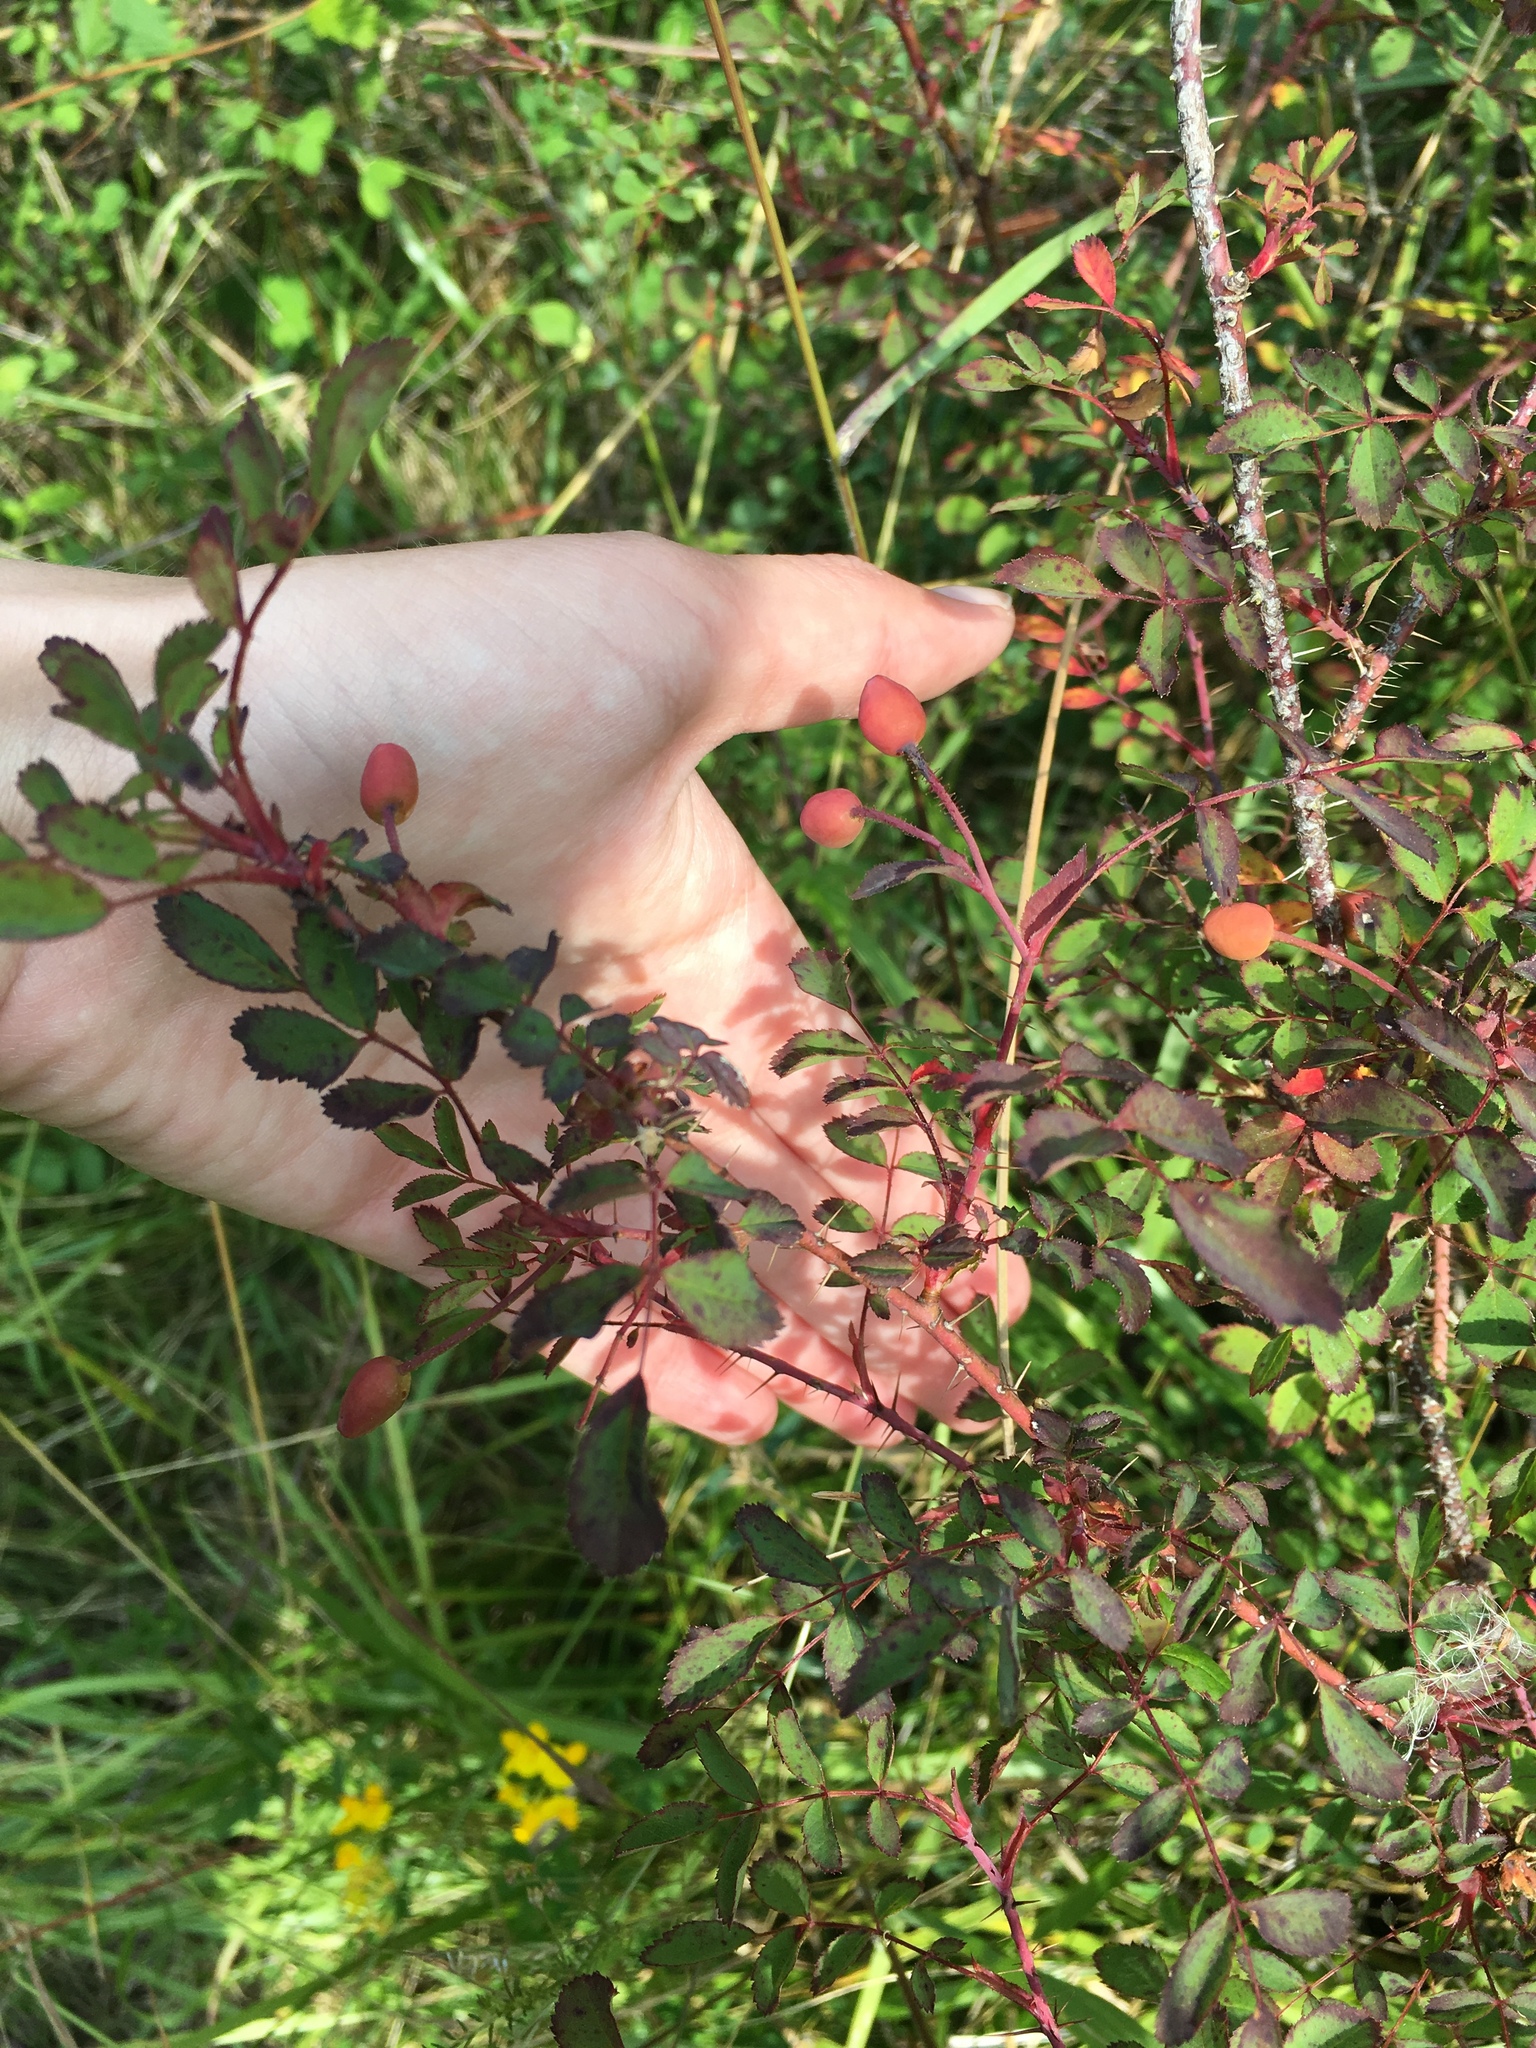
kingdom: Plantae
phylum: Tracheophyta
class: Magnoliopsida
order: Rosales
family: Rosaceae
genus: Rosa
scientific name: Rosa gymnocarpa
